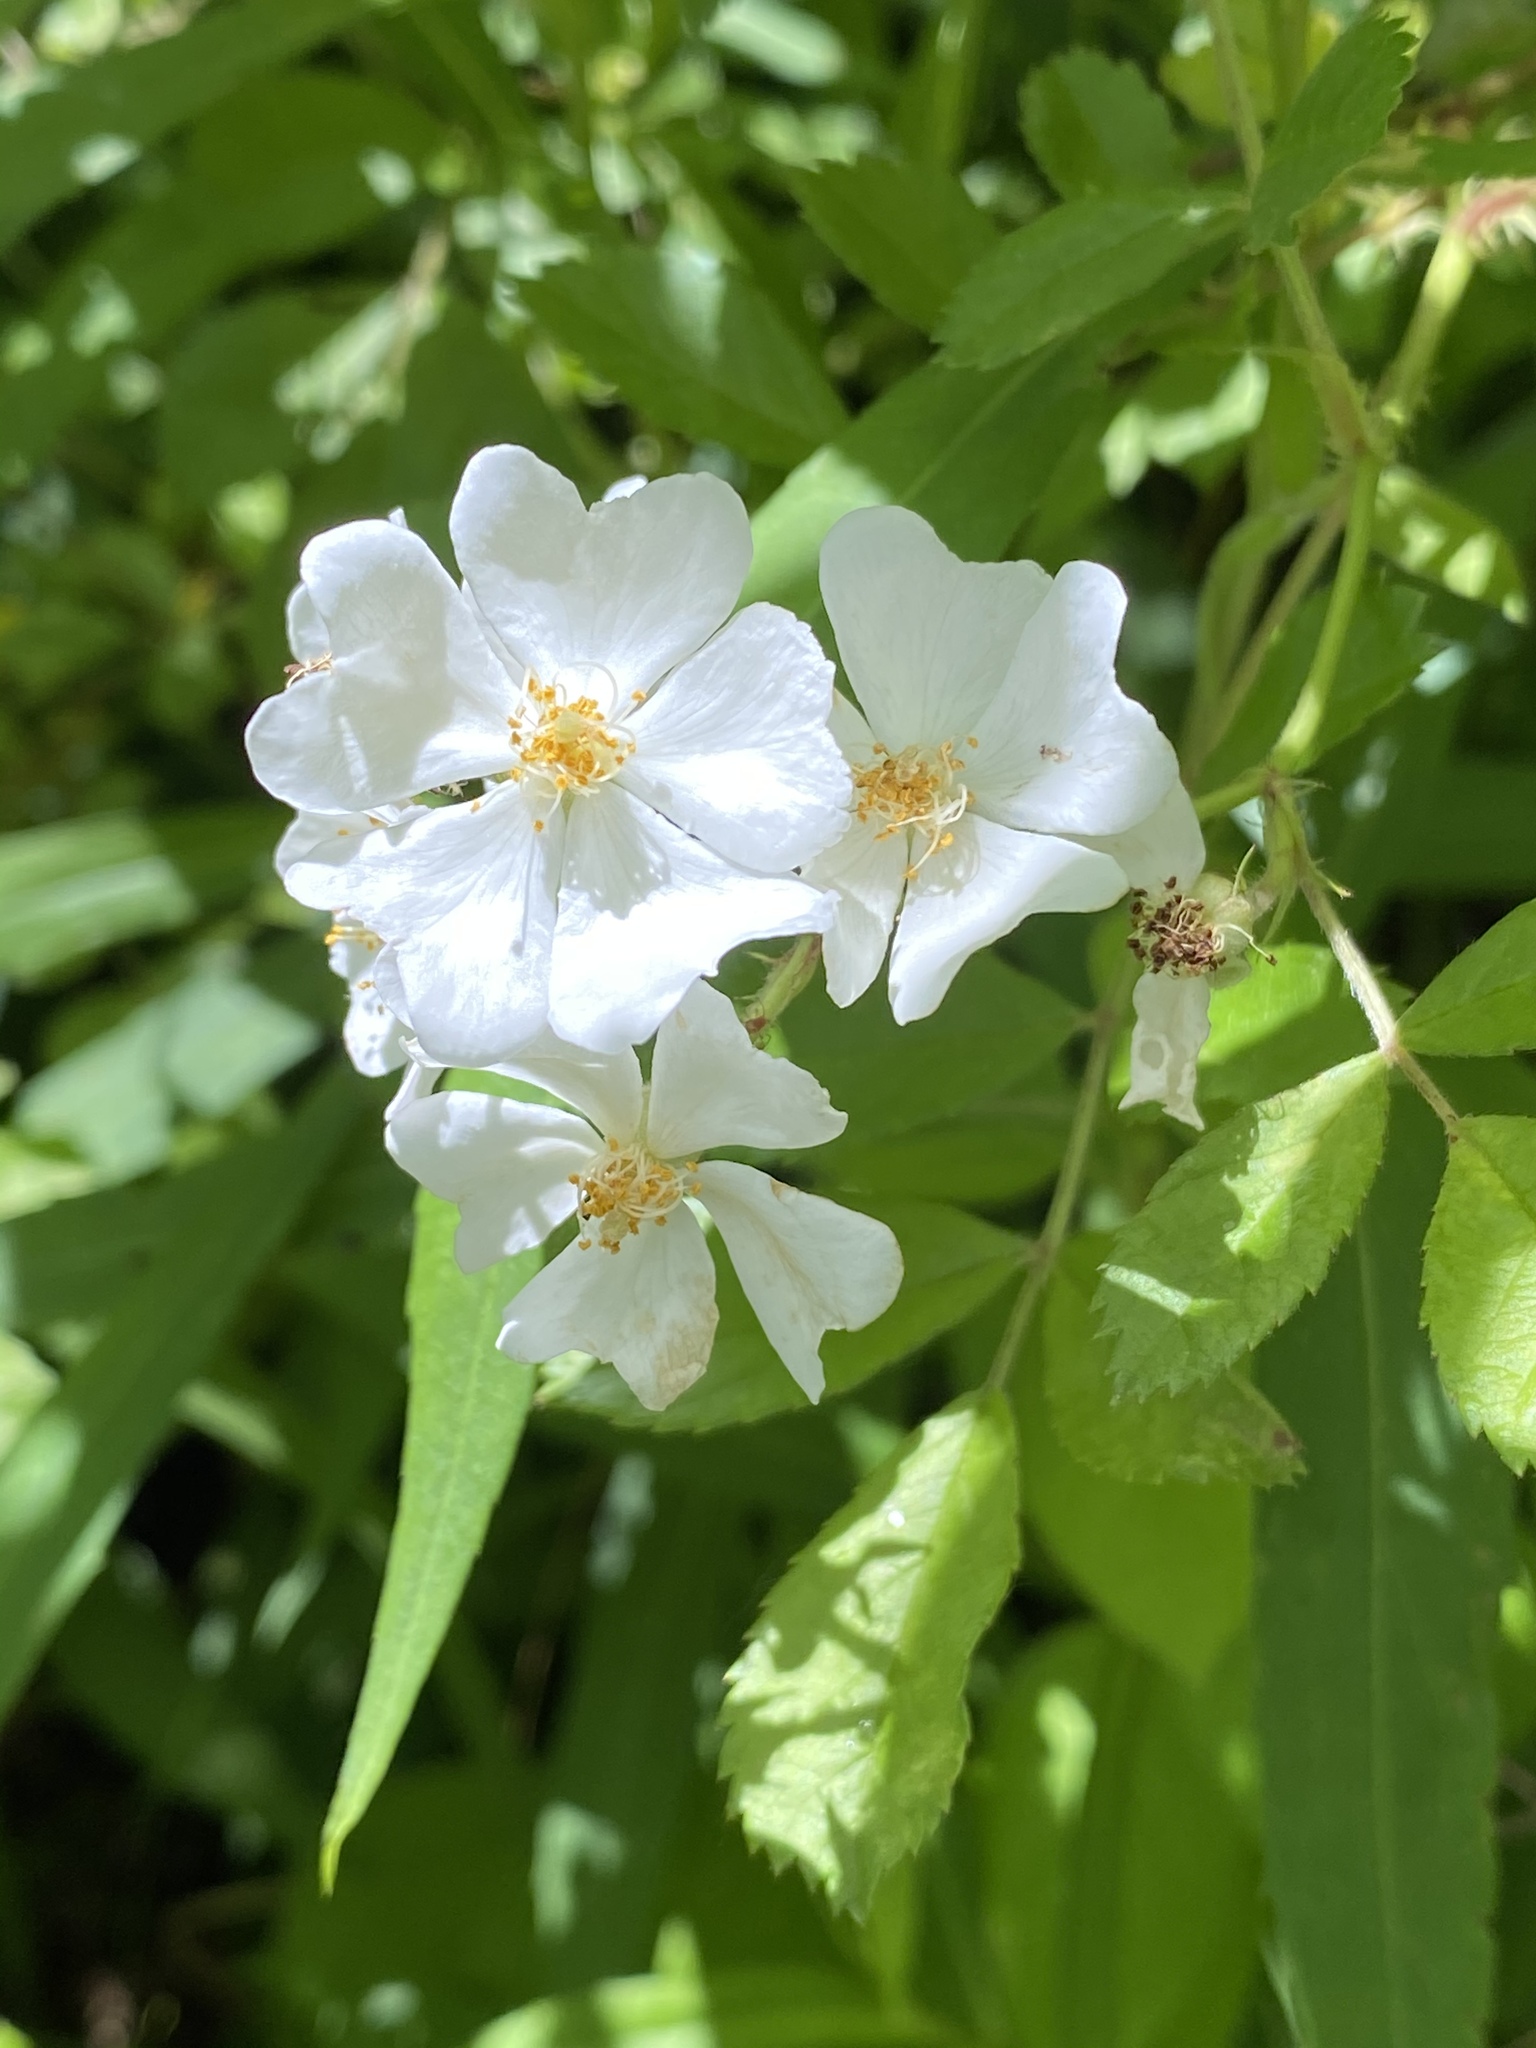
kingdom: Plantae
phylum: Tracheophyta
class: Magnoliopsida
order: Rosales
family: Rosaceae
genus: Rosa
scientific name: Rosa multiflora
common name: Multiflora rose
